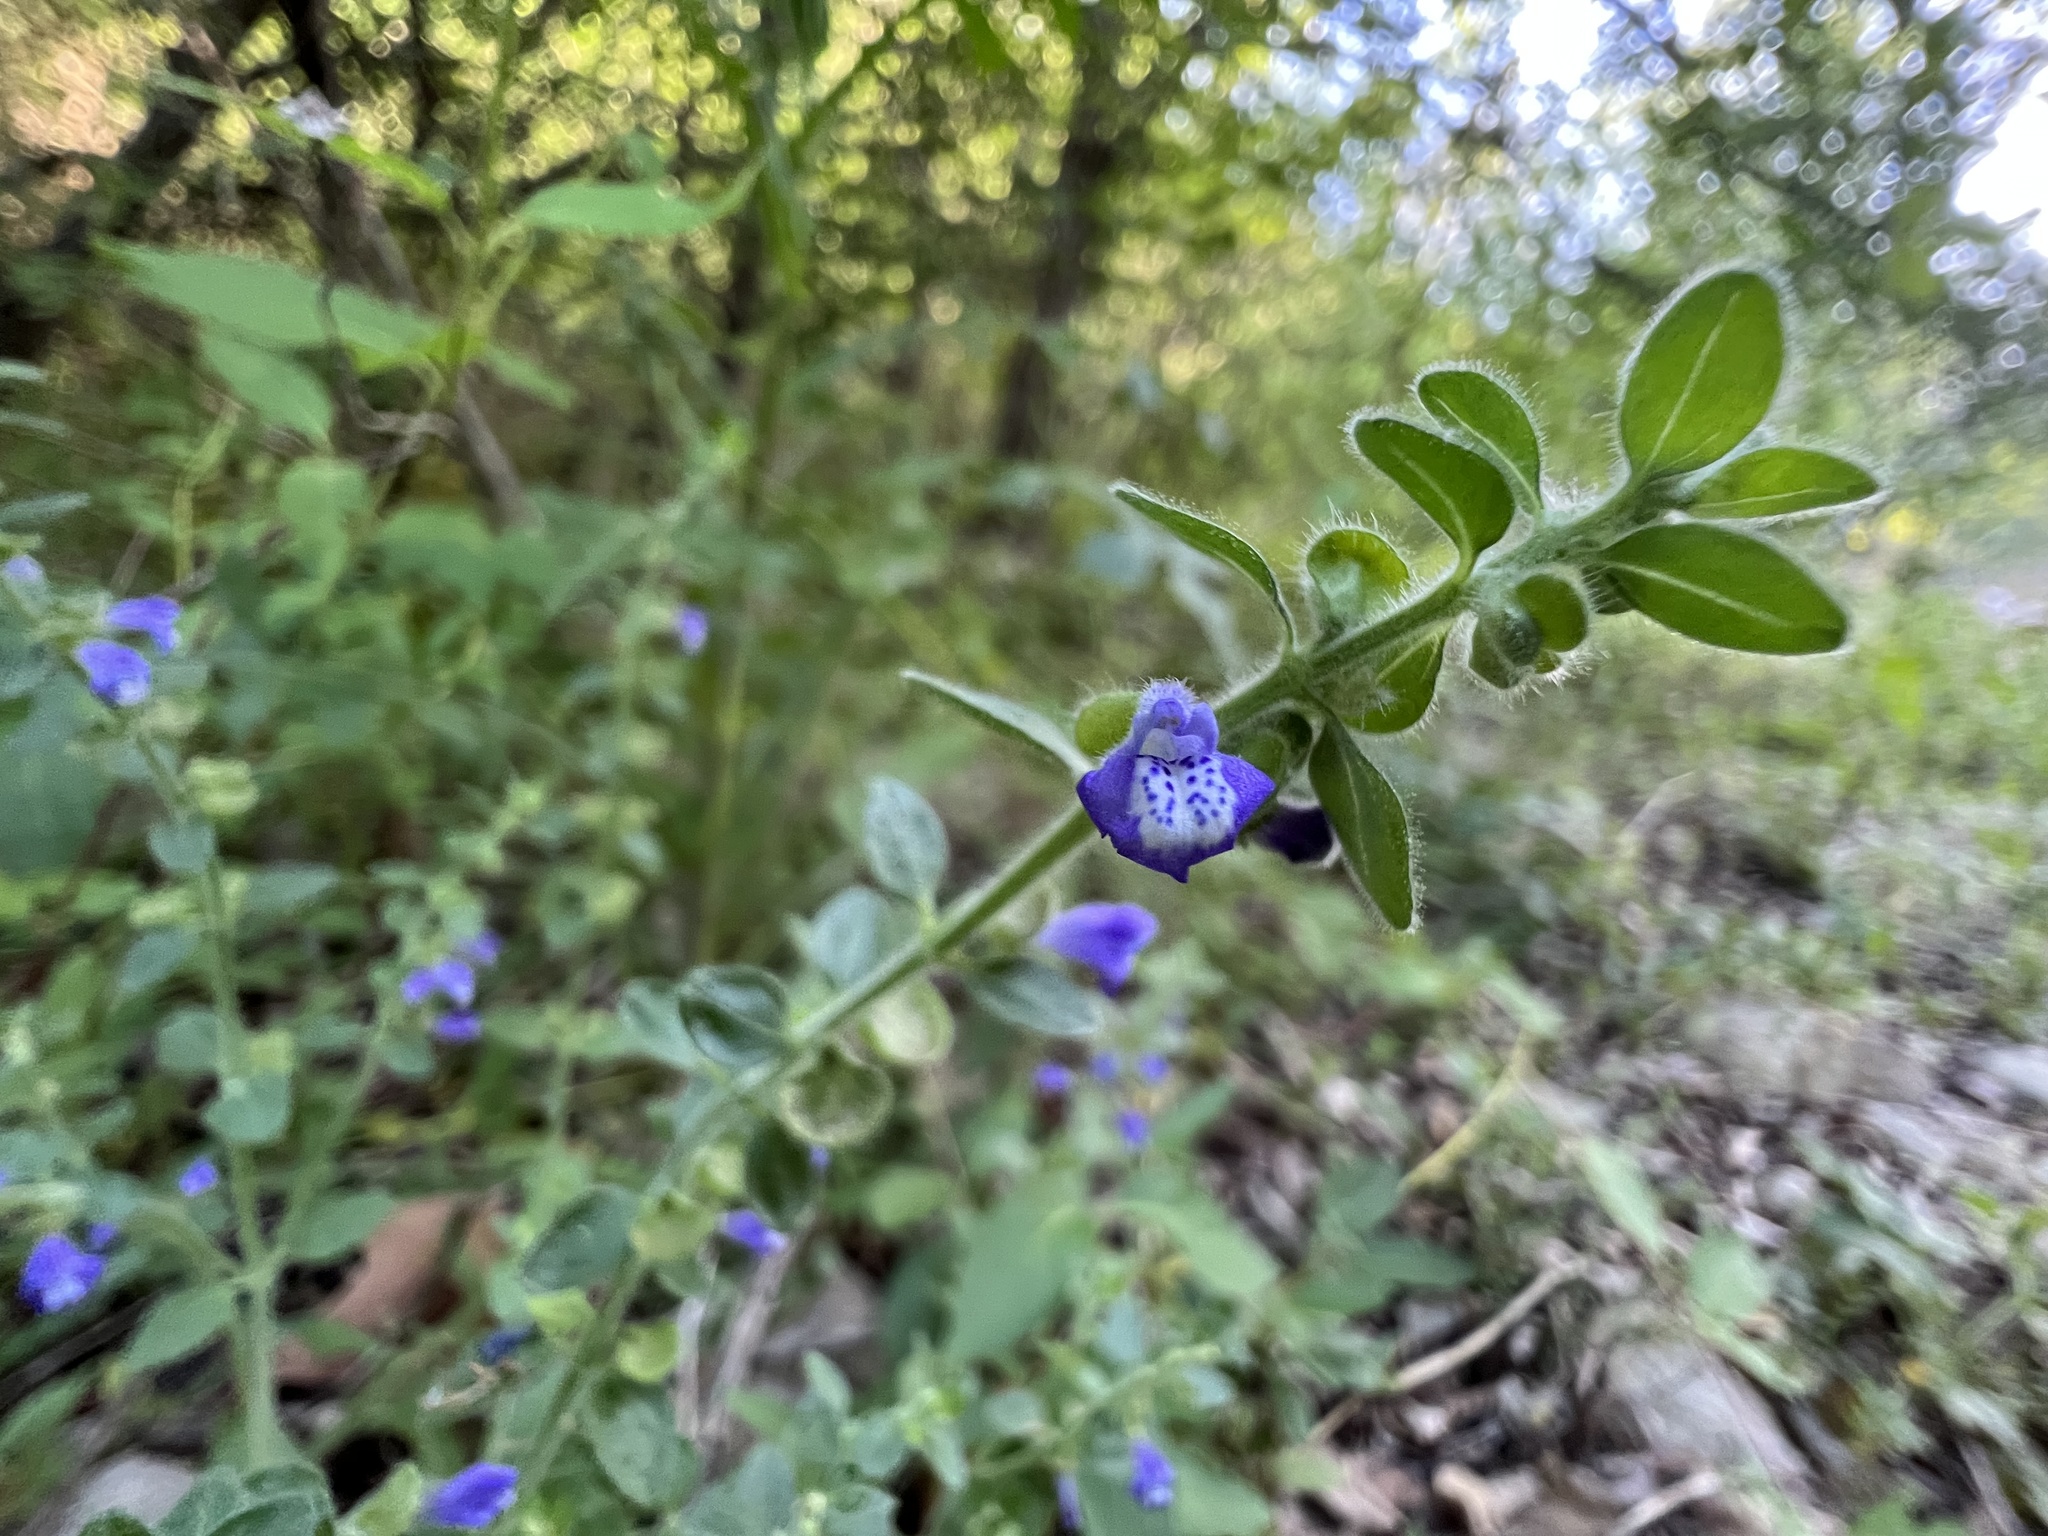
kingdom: Plantae
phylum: Tracheophyta
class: Magnoliopsida
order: Lamiales
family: Lamiaceae
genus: Scutellaria
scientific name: Scutellaria drummondii
